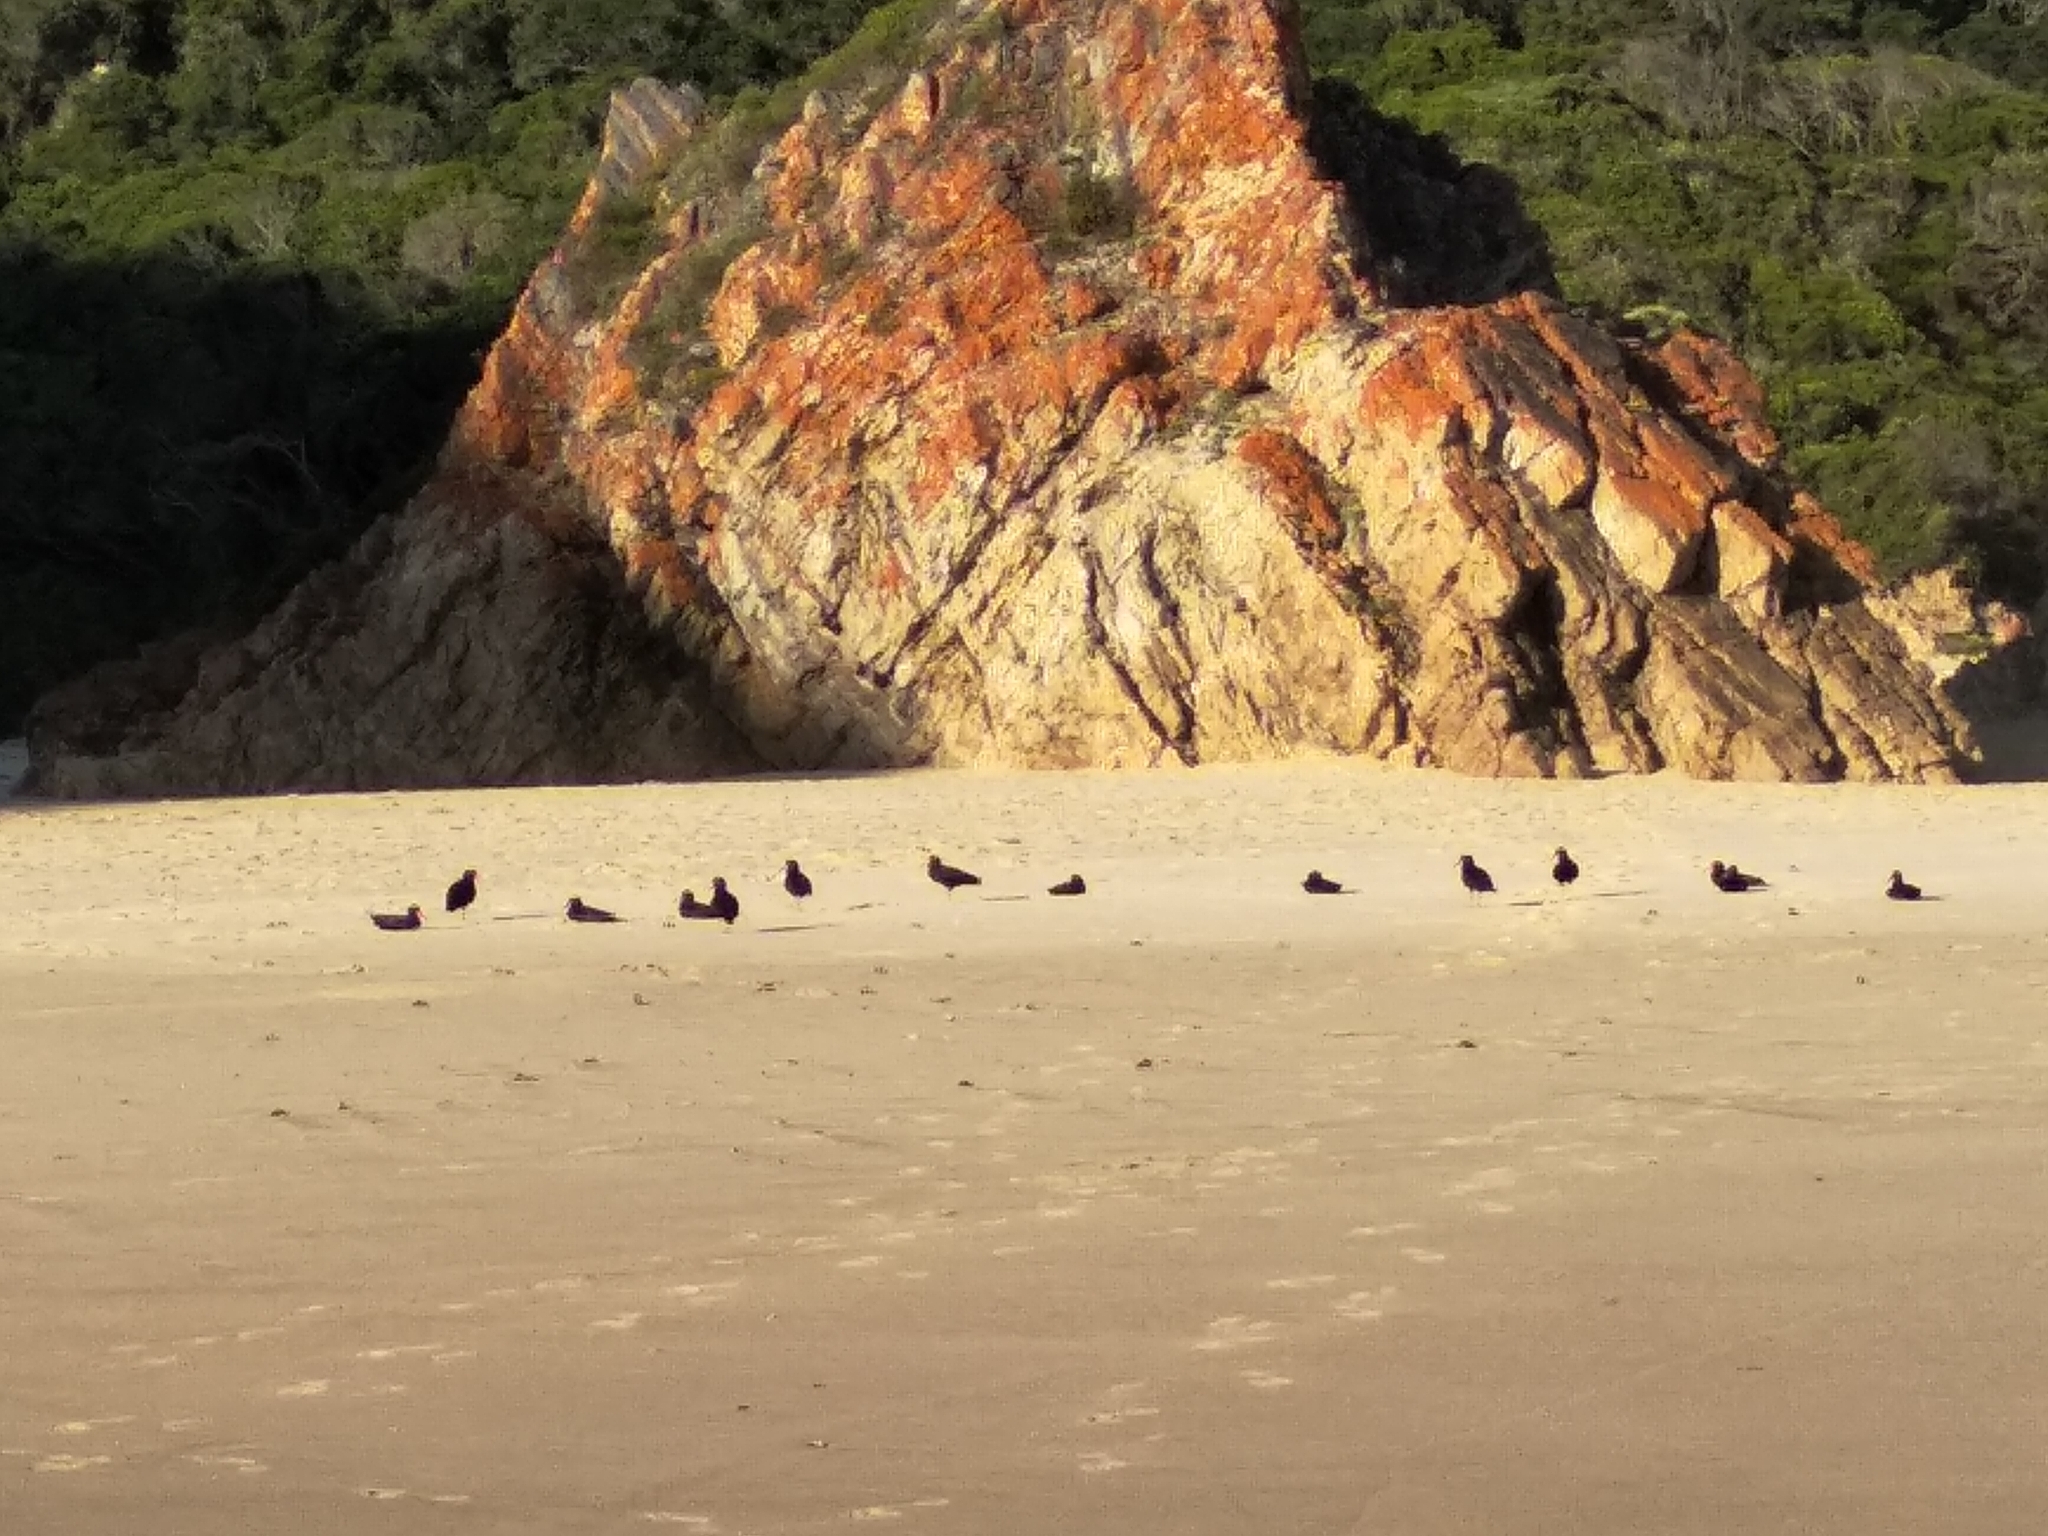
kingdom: Animalia
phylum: Chordata
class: Aves
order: Charadriiformes
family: Haematopodidae
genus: Haematopus
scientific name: Haematopus moquini
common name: African oystercatcher
